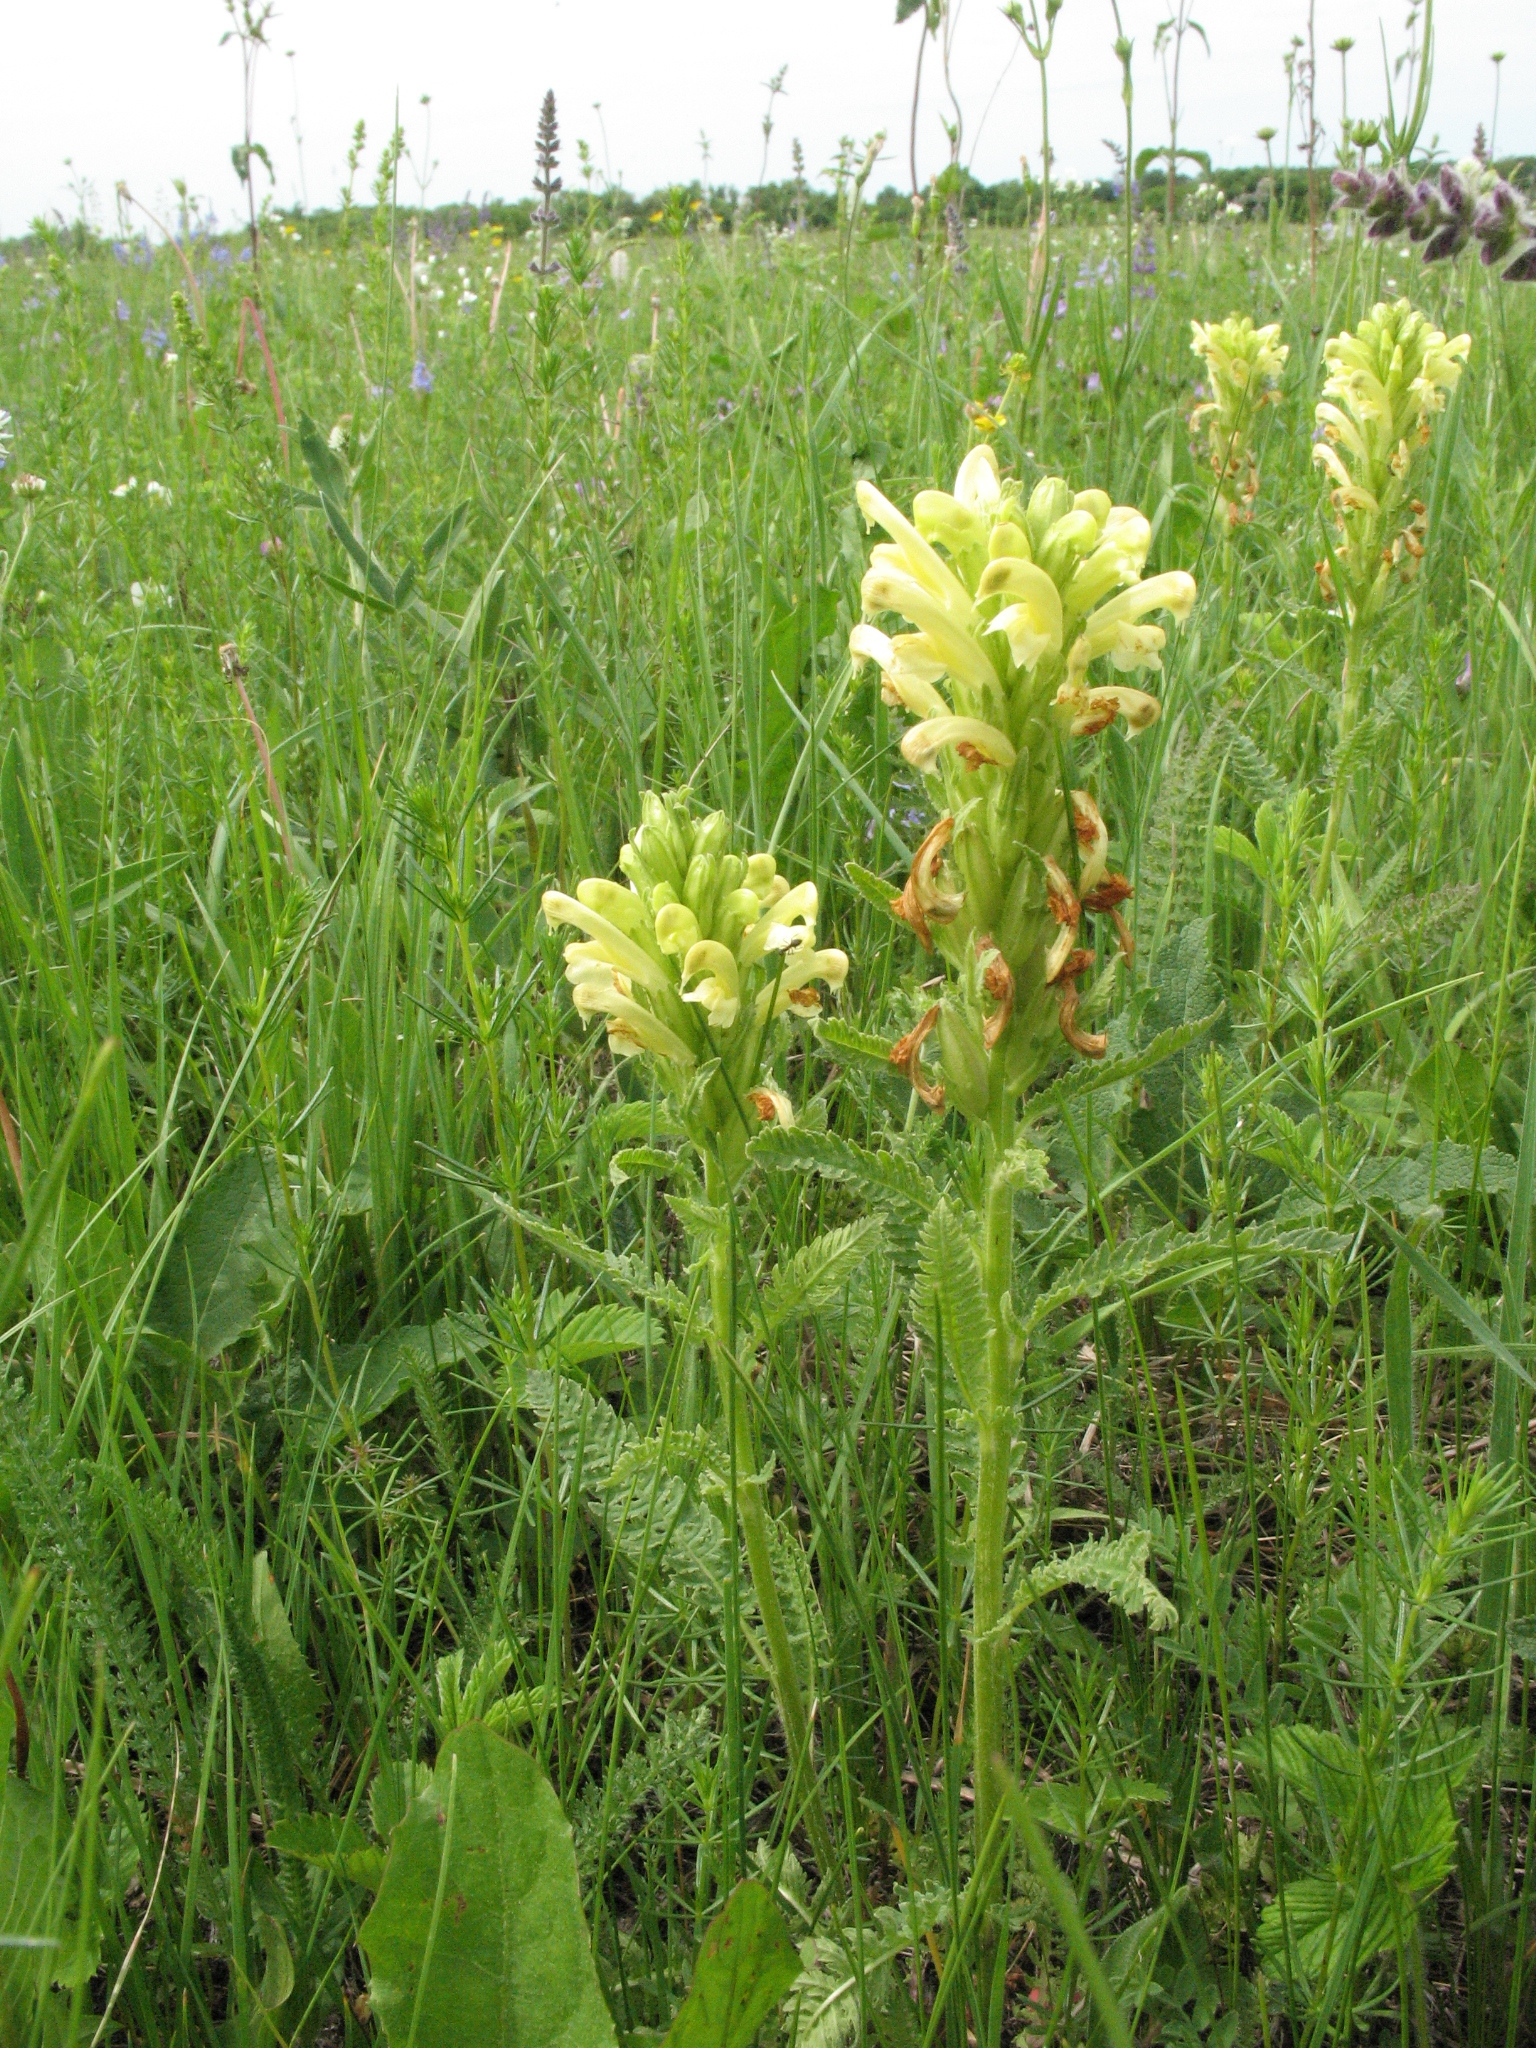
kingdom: Plantae
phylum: Tracheophyta
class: Magnoliopsida
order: Lamiales
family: Orobanchaceae
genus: Pedicularis
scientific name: Pedicularis kaufmannii
